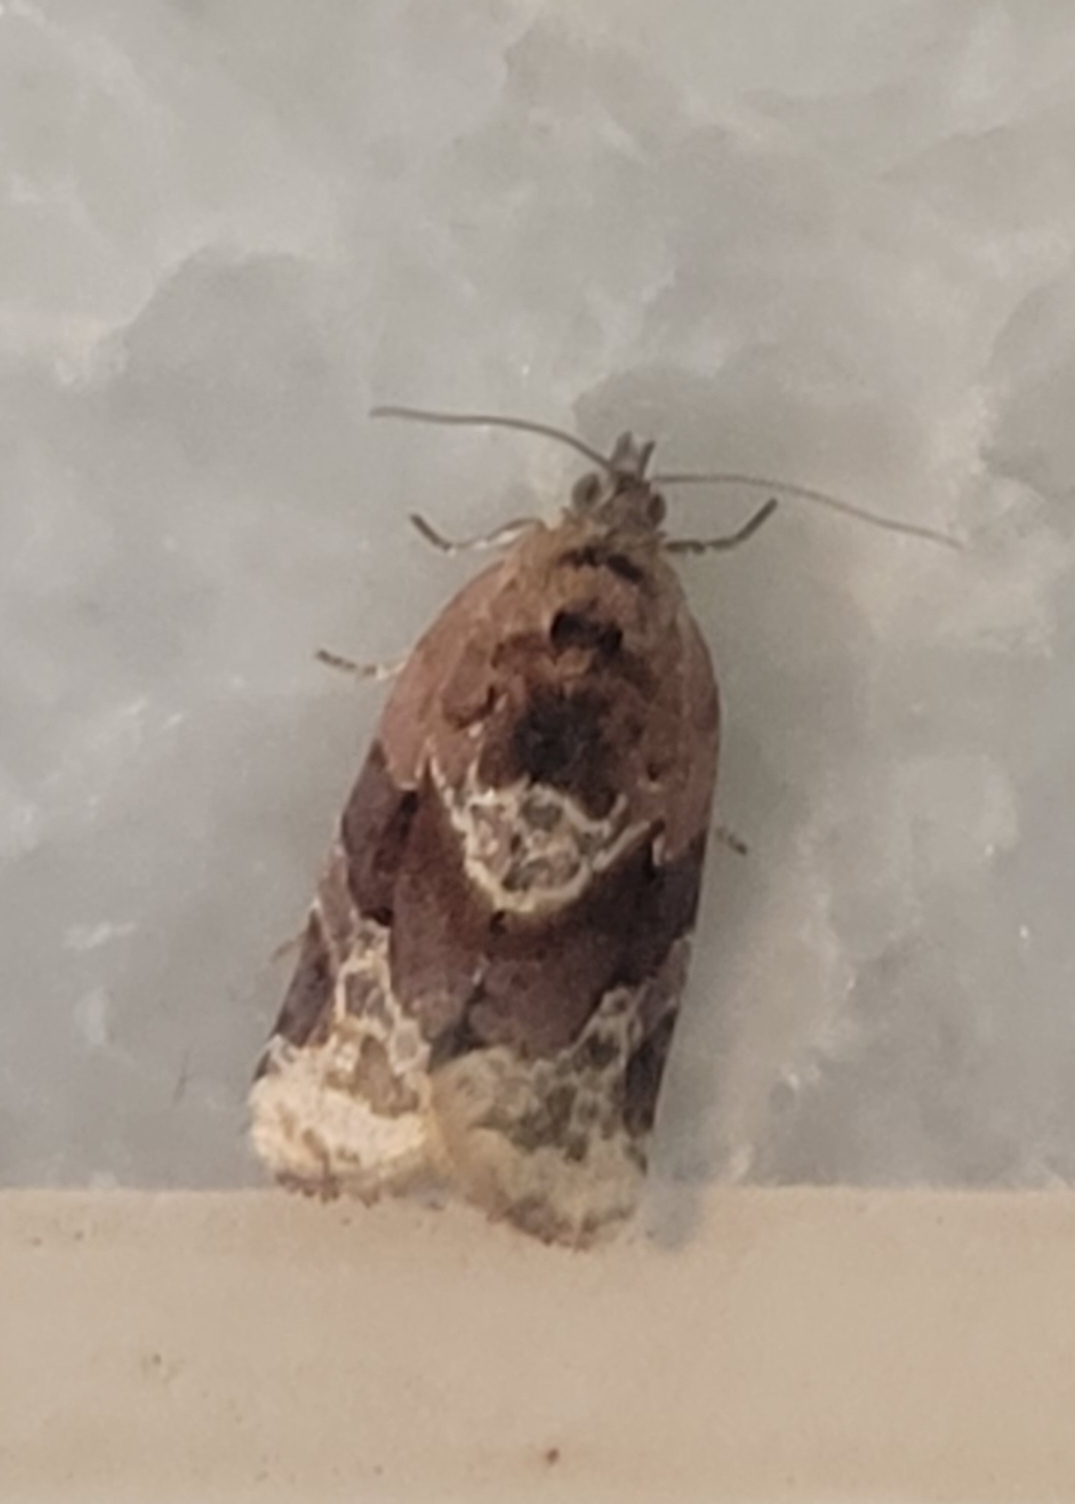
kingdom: Animalia
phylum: Arthropoda
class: Insecta
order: Lepidoptera
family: Tortricidae
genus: Argyrotaenia
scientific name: Argyrotaenia velutinana
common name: Red-banded leafroller moth
